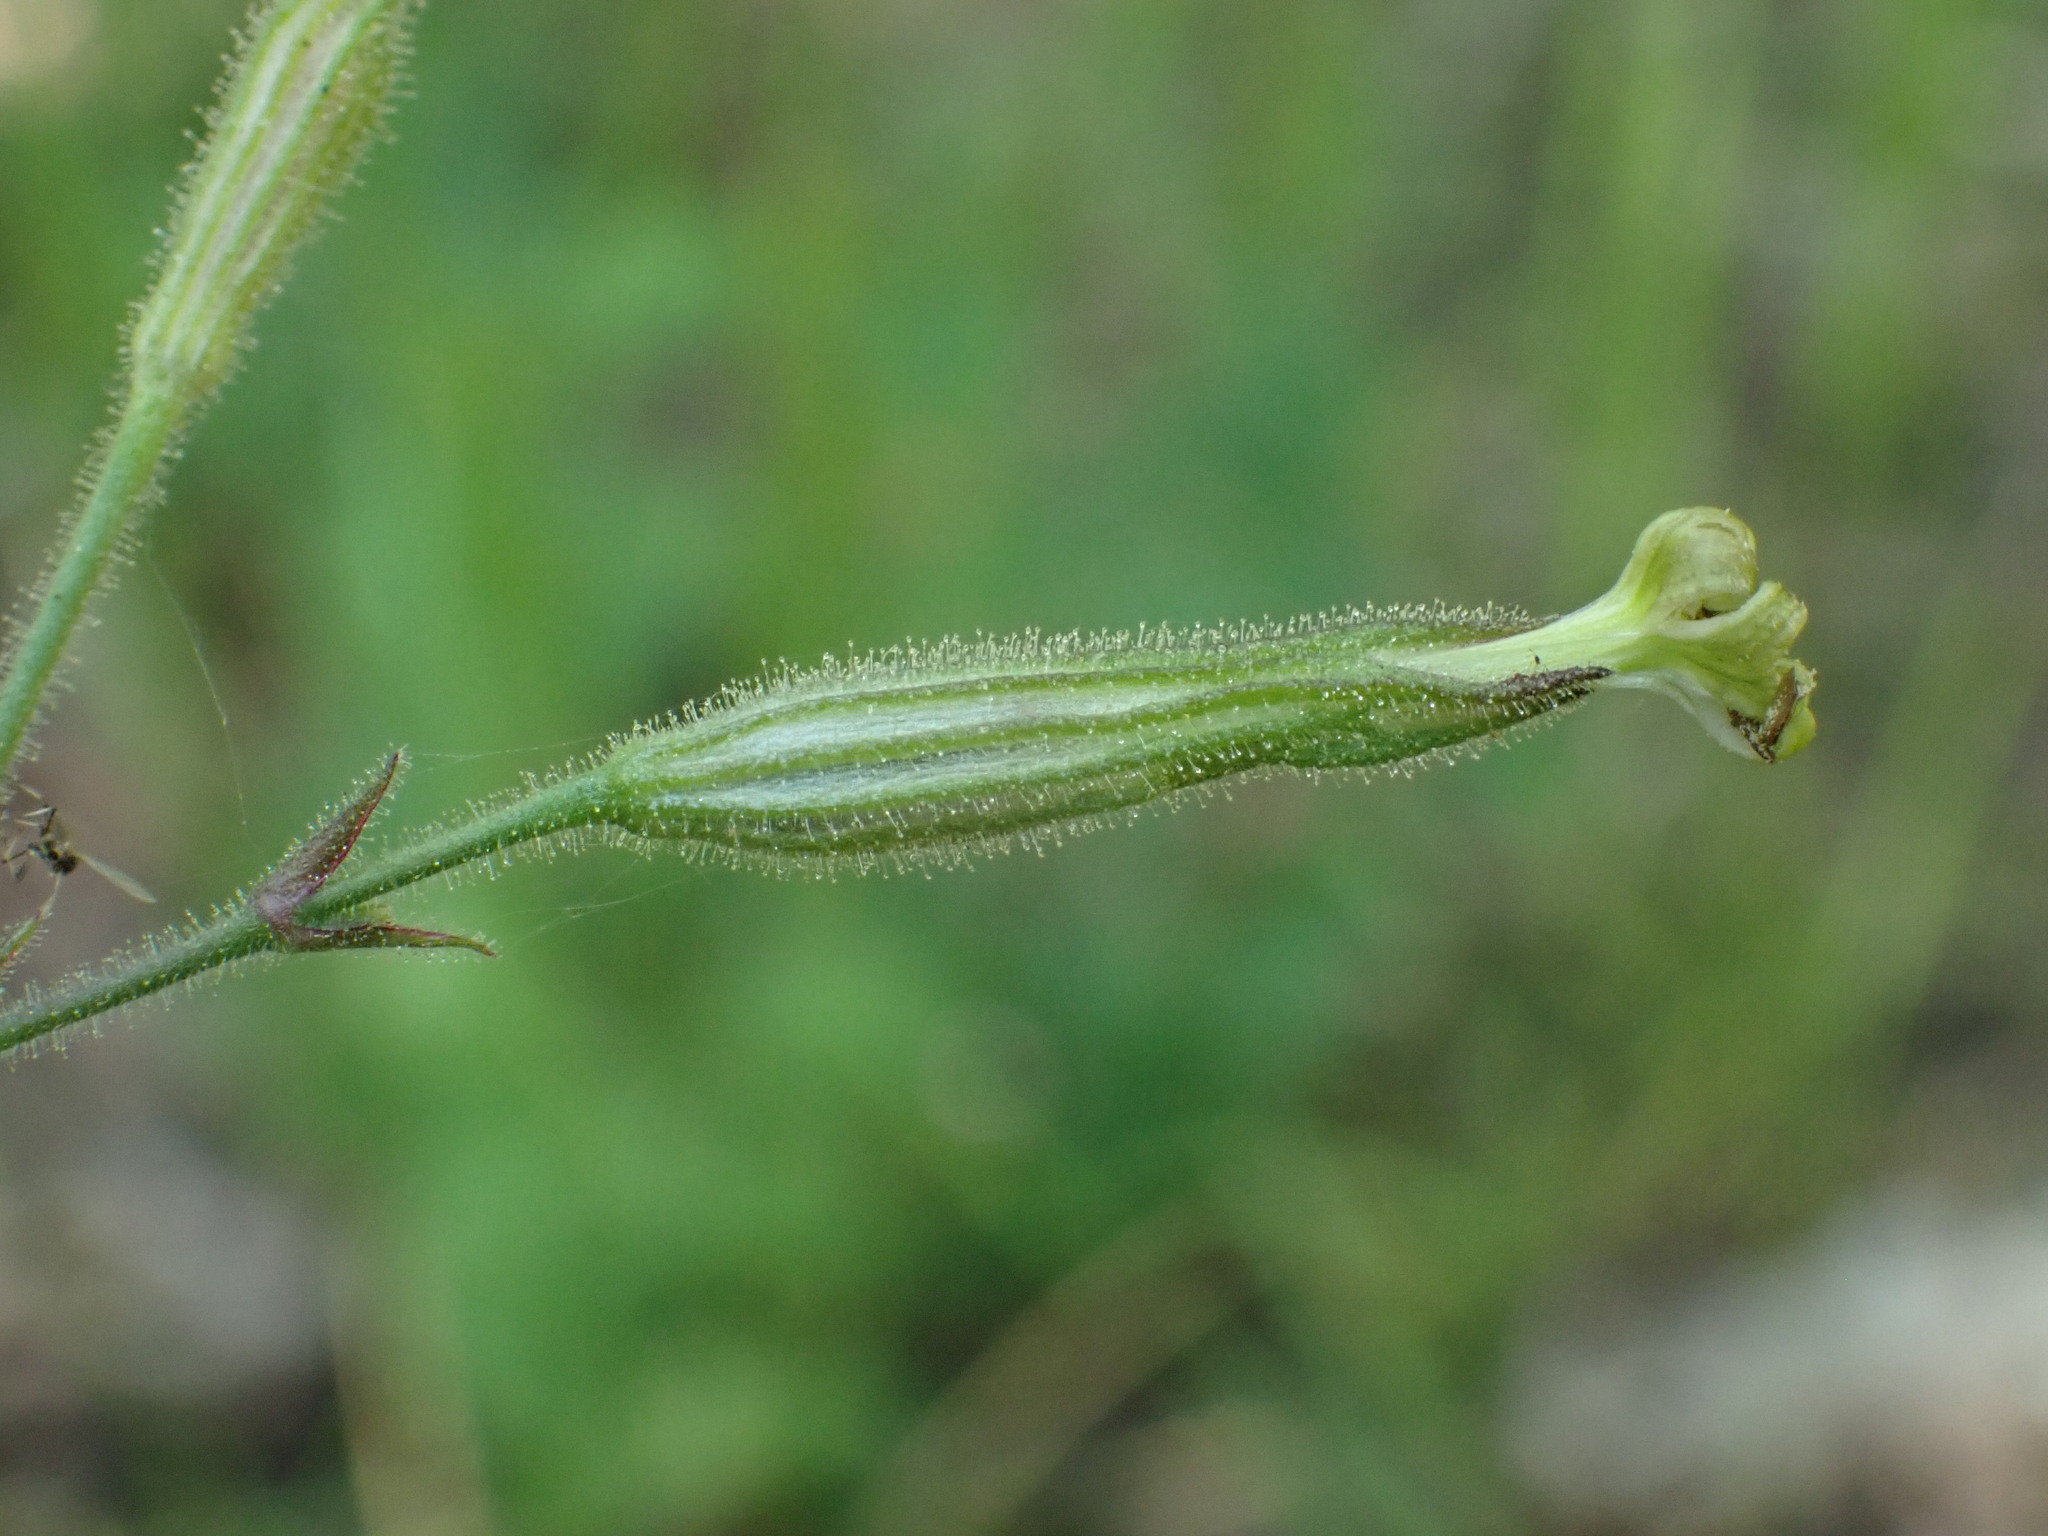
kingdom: Plantae
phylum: Tracheophyta
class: Magnoliopsida
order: Caryophyllales
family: Caryophyllaceae
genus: Silene
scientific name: Silene viridiflora
